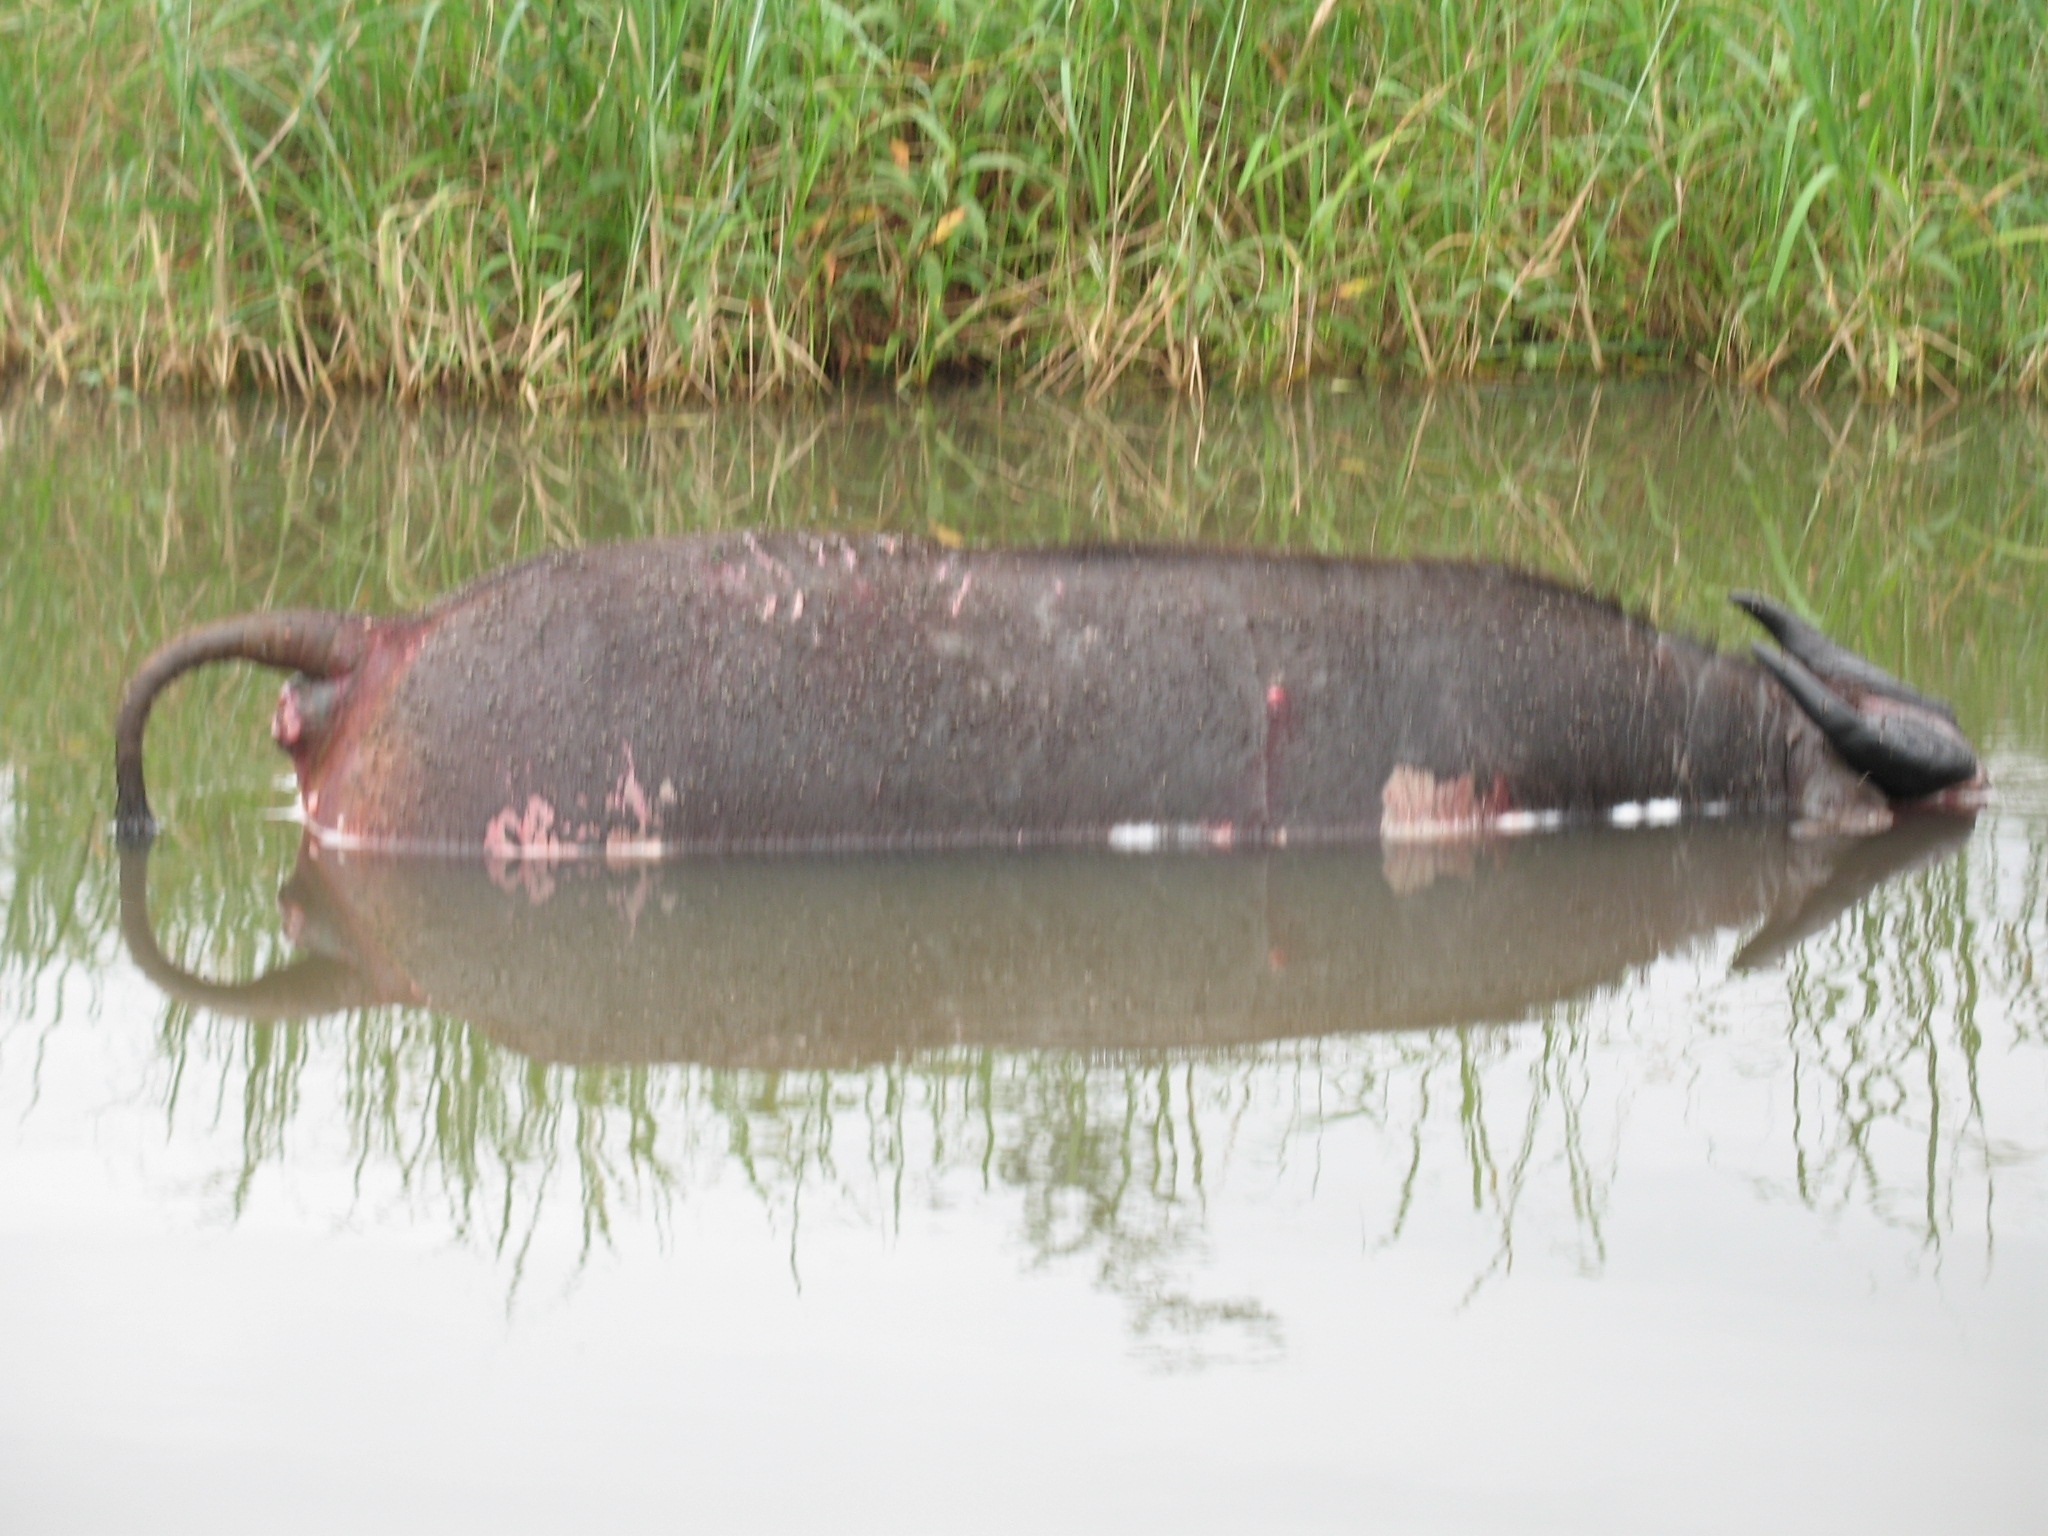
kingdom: Animalia
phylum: Chordata
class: Mammalia
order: Artiodactyla
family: Bovidae
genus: Syncerus
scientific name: Syncerus caffer
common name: African buffalo
